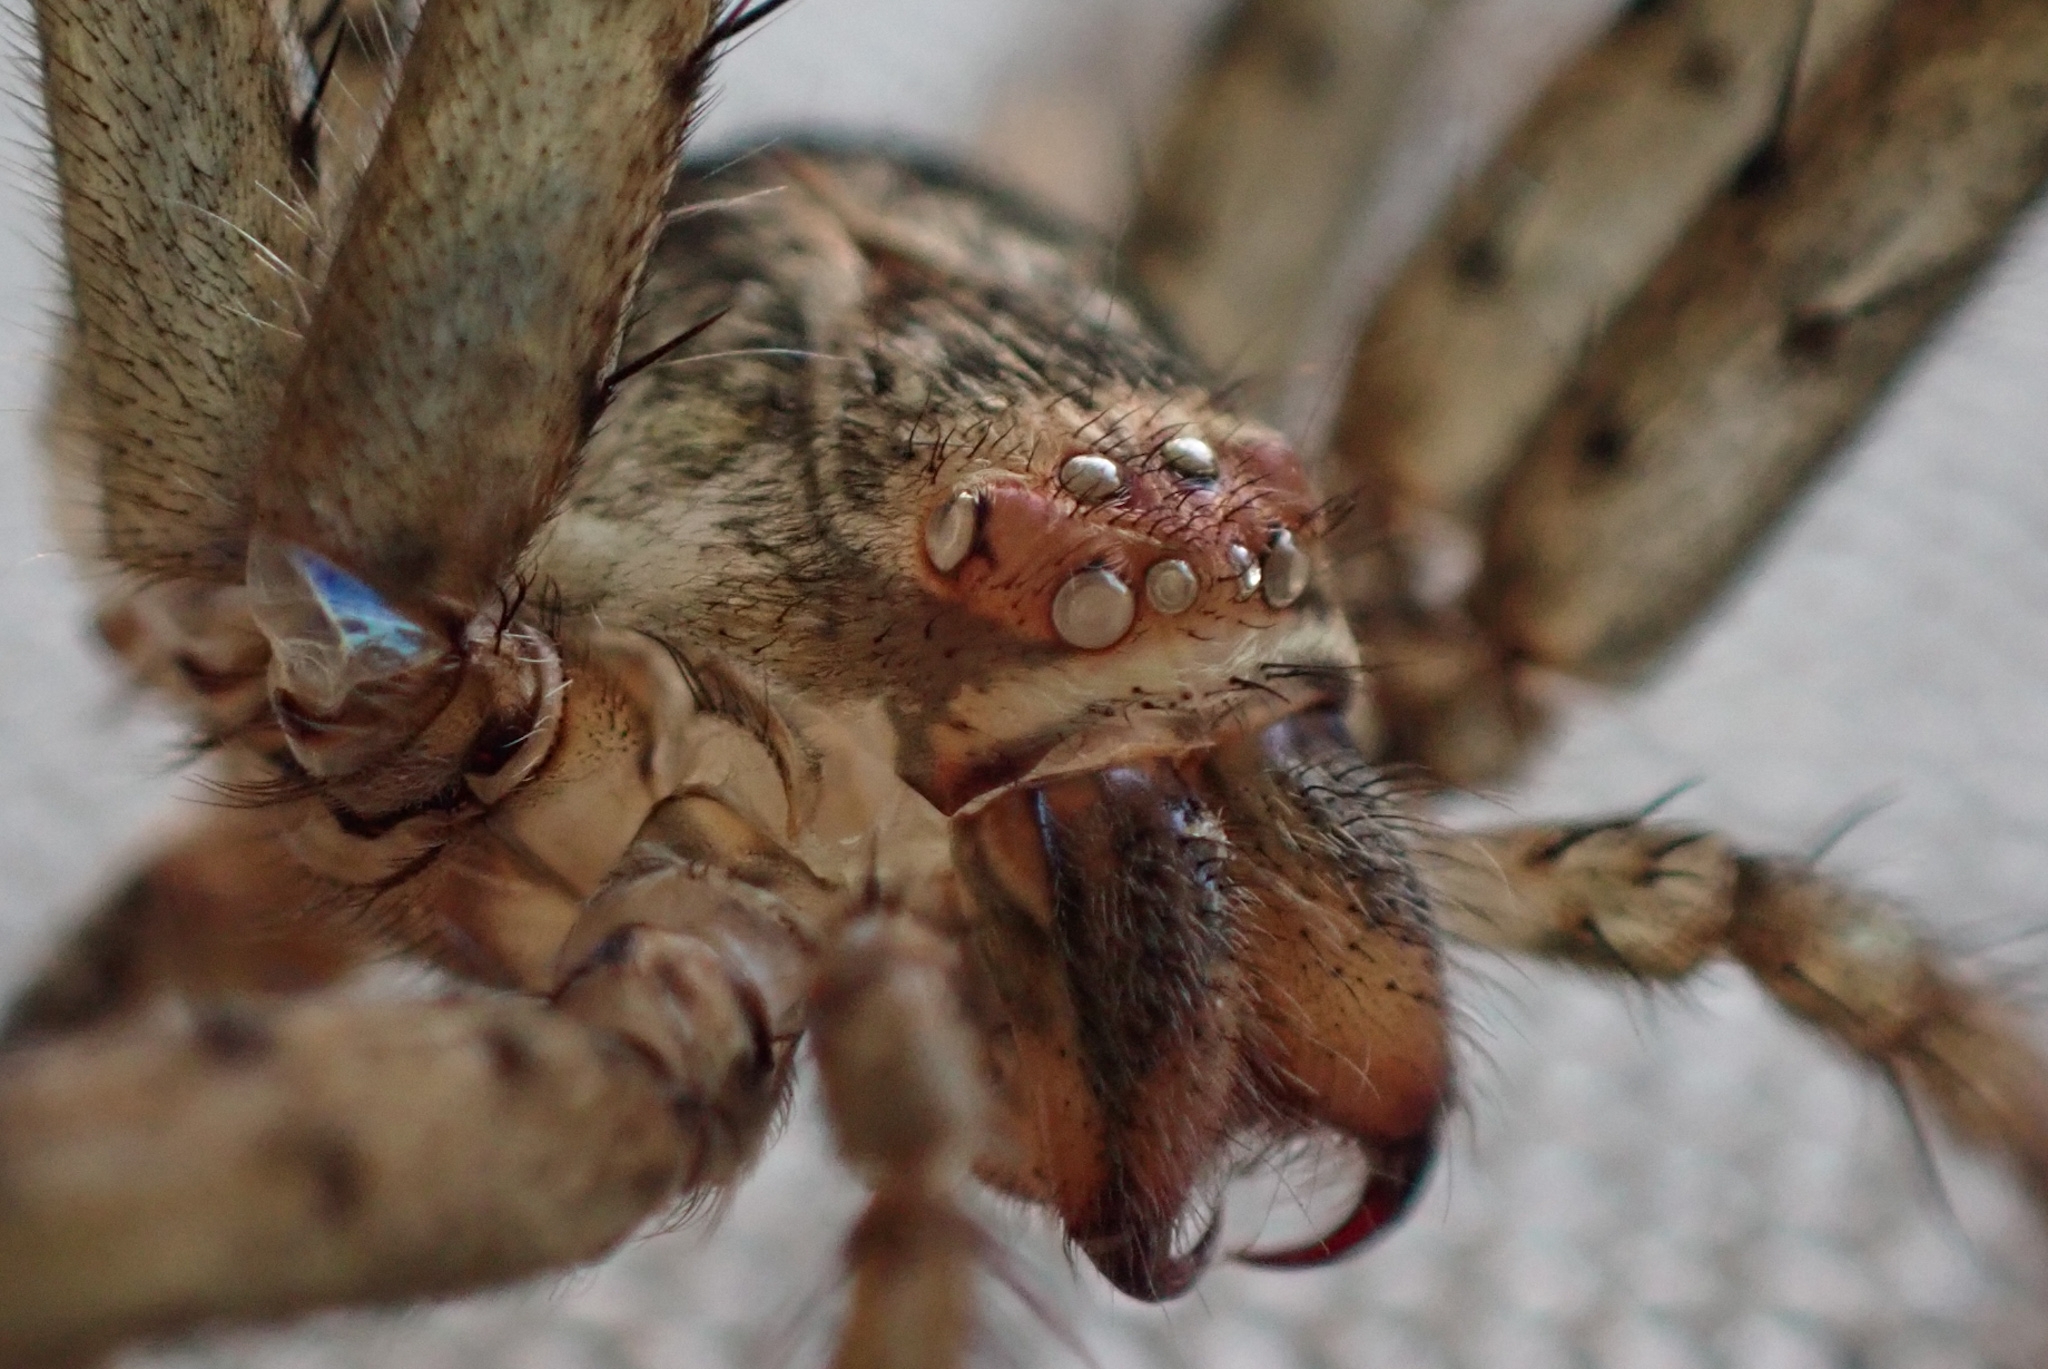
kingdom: Animalia
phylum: Arthropoda
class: Arachnida
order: Araneae
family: Sparassidae
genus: Heteropoda
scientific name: Heteropoda venatoria
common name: Huntsman spider
